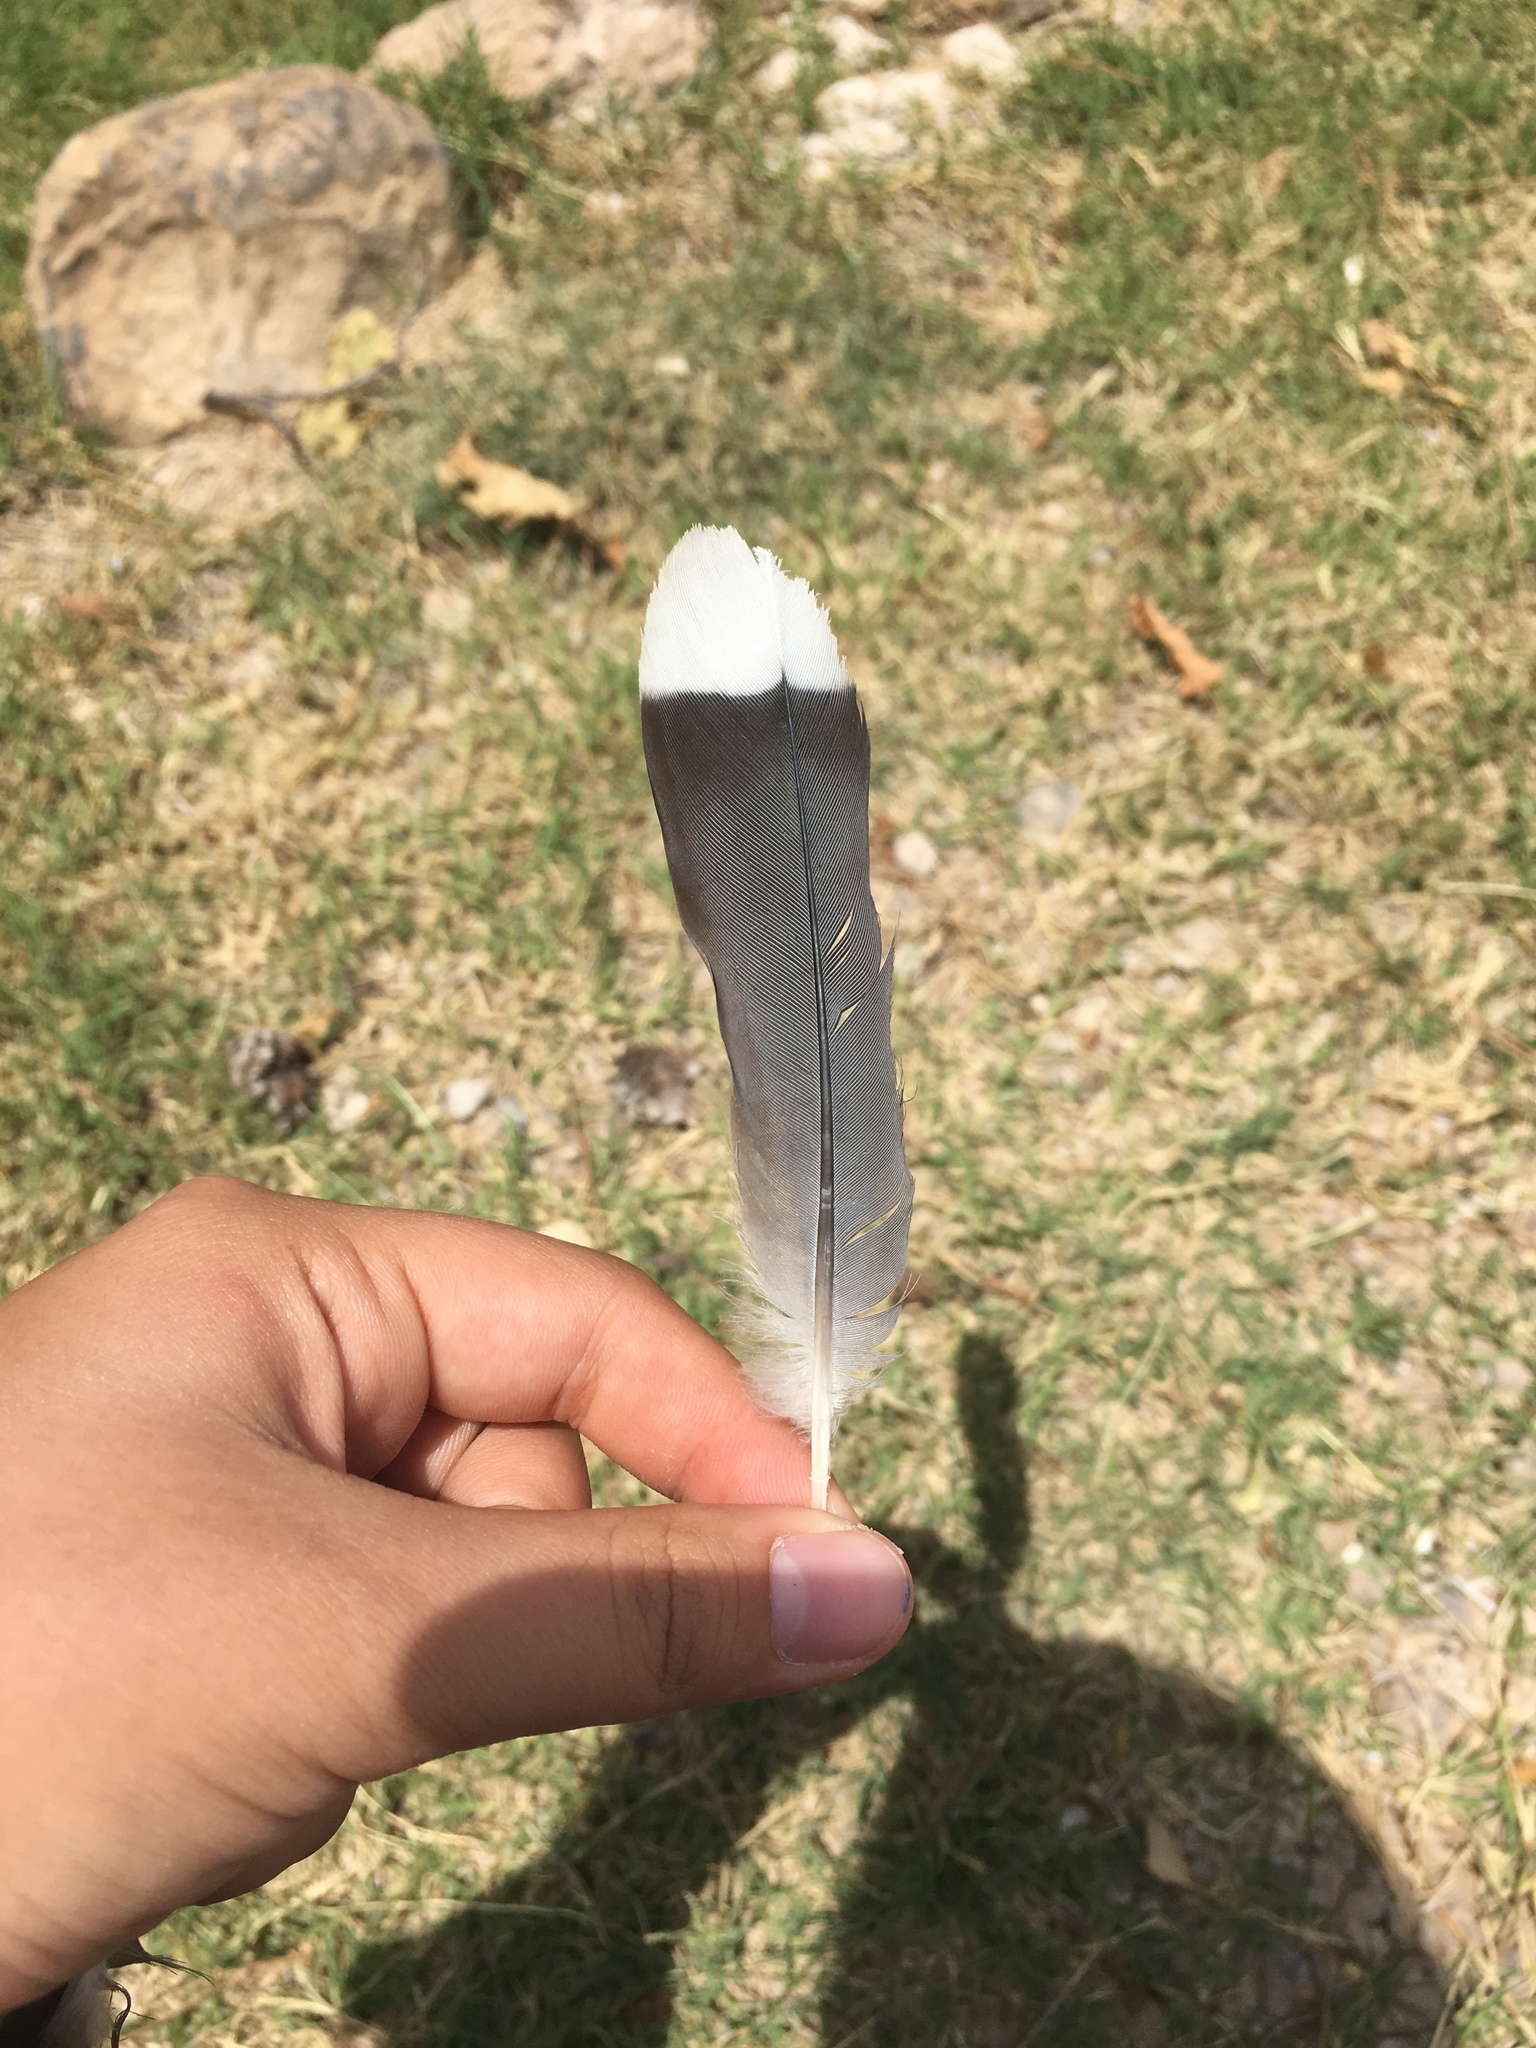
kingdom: Animalia
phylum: Chordata
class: Aves
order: Columbiformes
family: Columbidae
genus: Zenaida
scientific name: Zenaida asiatica
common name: White-winged dove
